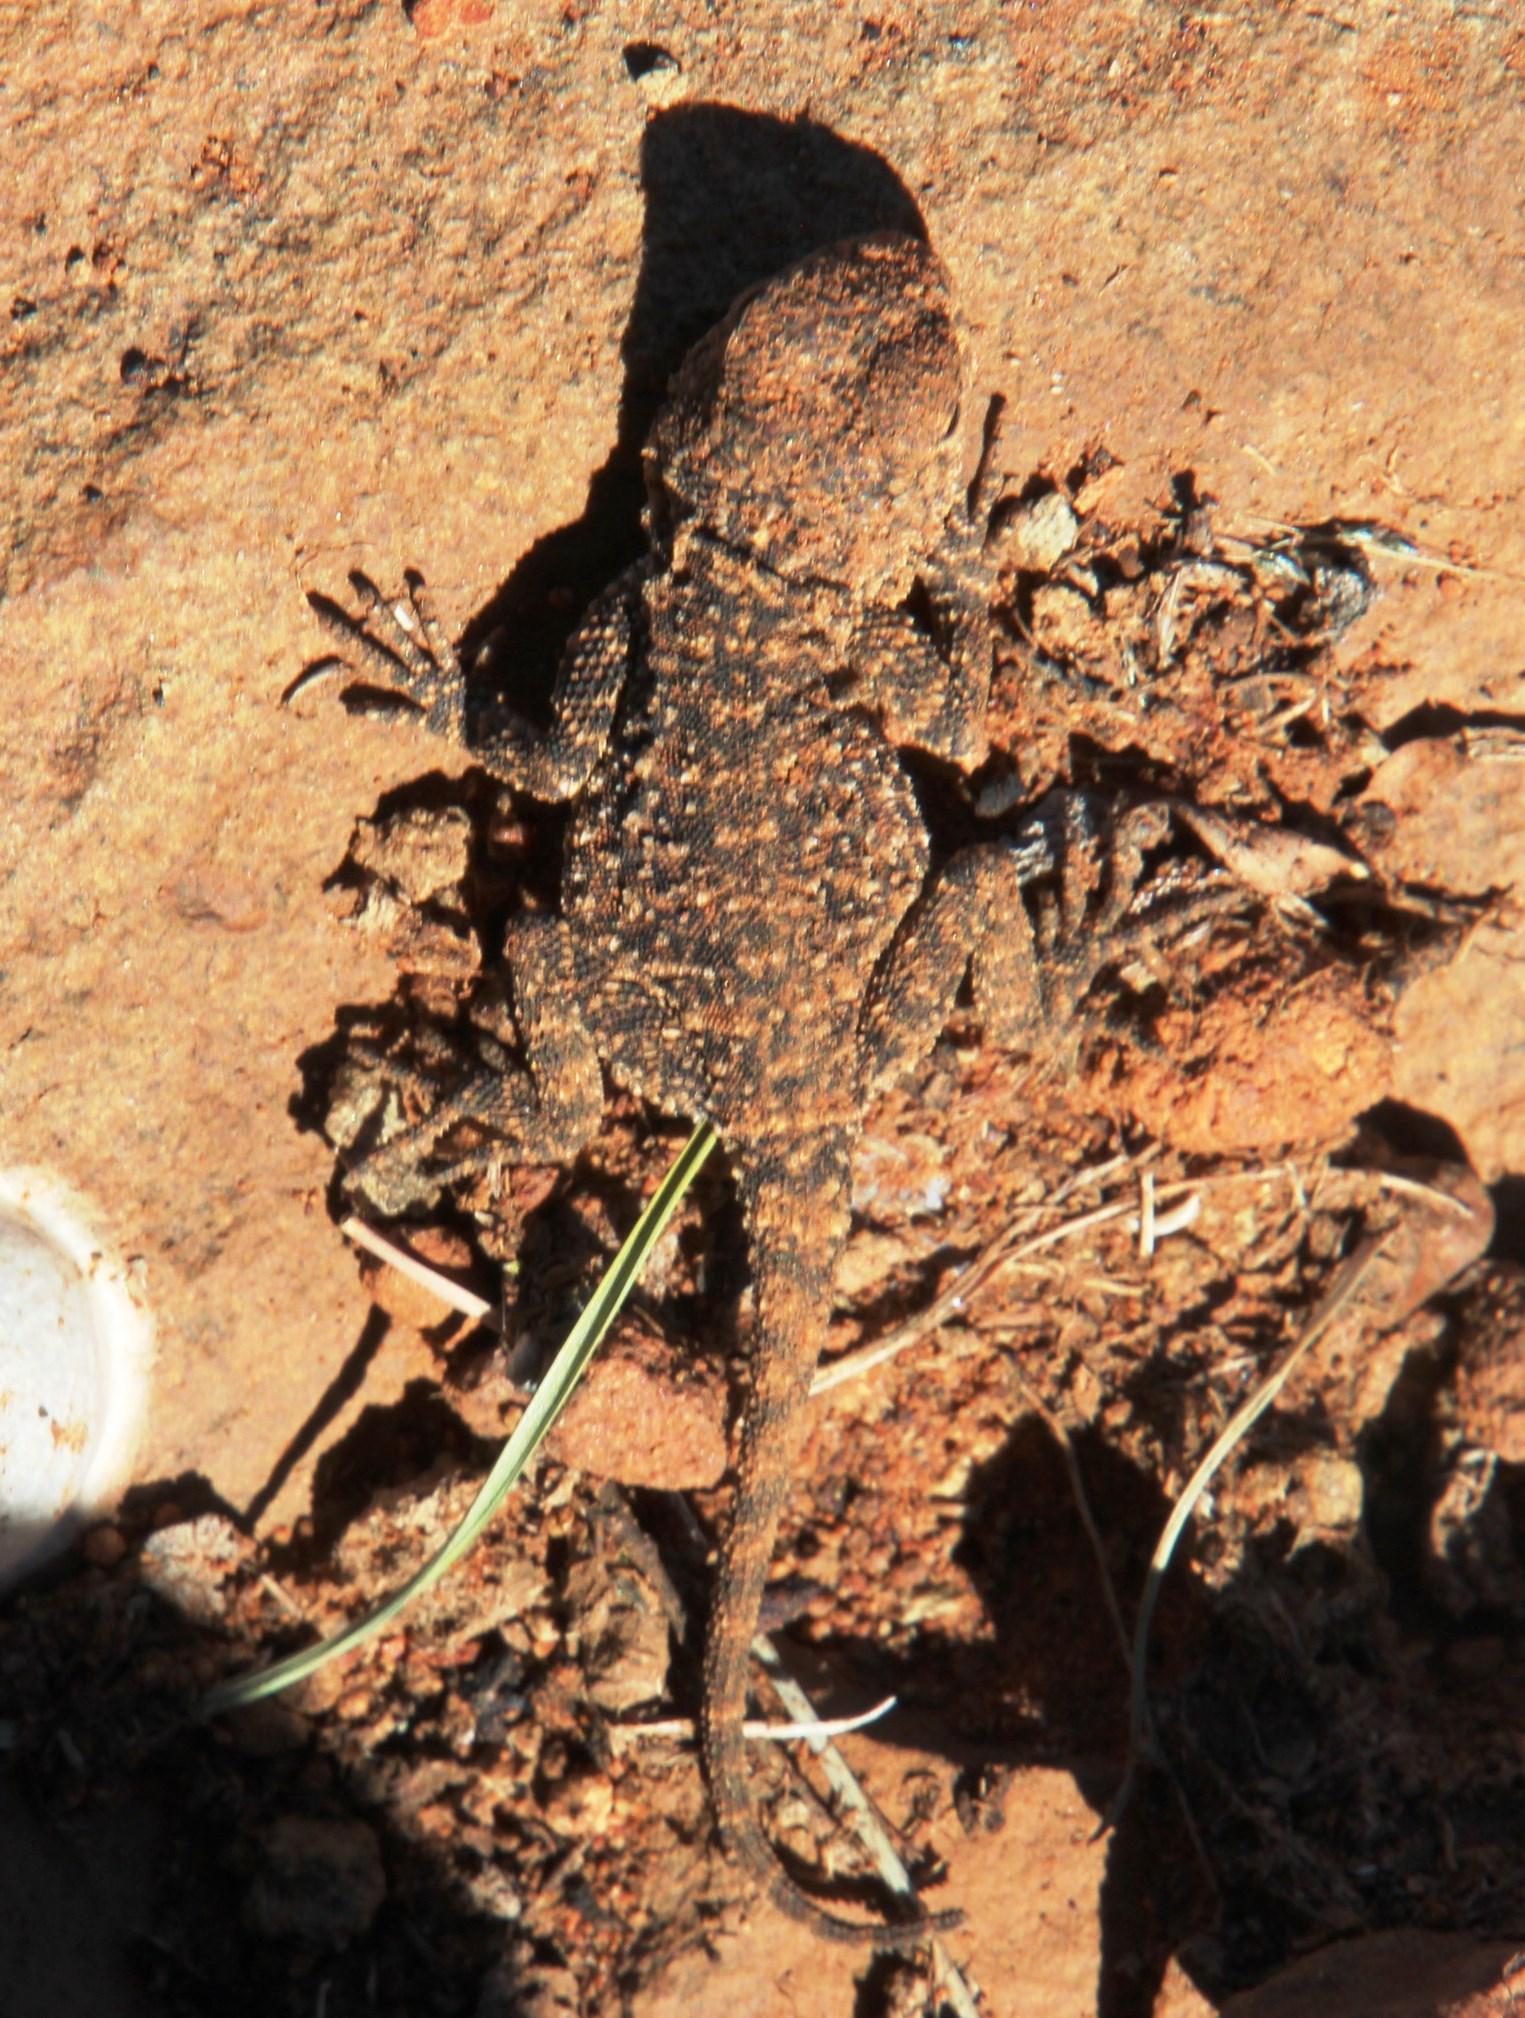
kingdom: Animalia
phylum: Chordata
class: Squamata
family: Agamidae
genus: Agama
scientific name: Agama aculeata
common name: Common ground agama
